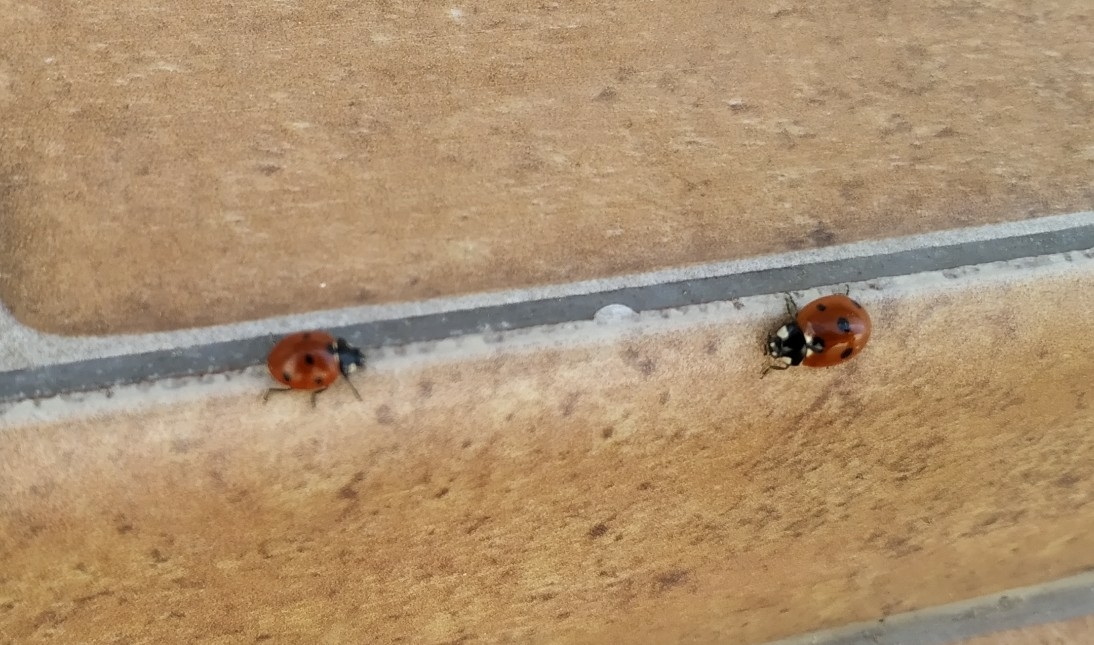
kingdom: Animalia
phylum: Arthropoda
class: Insecta
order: Coleoptera
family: Coccinellidae
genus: Coccinella
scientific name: Coccinella septempunctata
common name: Sevenspotted lady beetle
